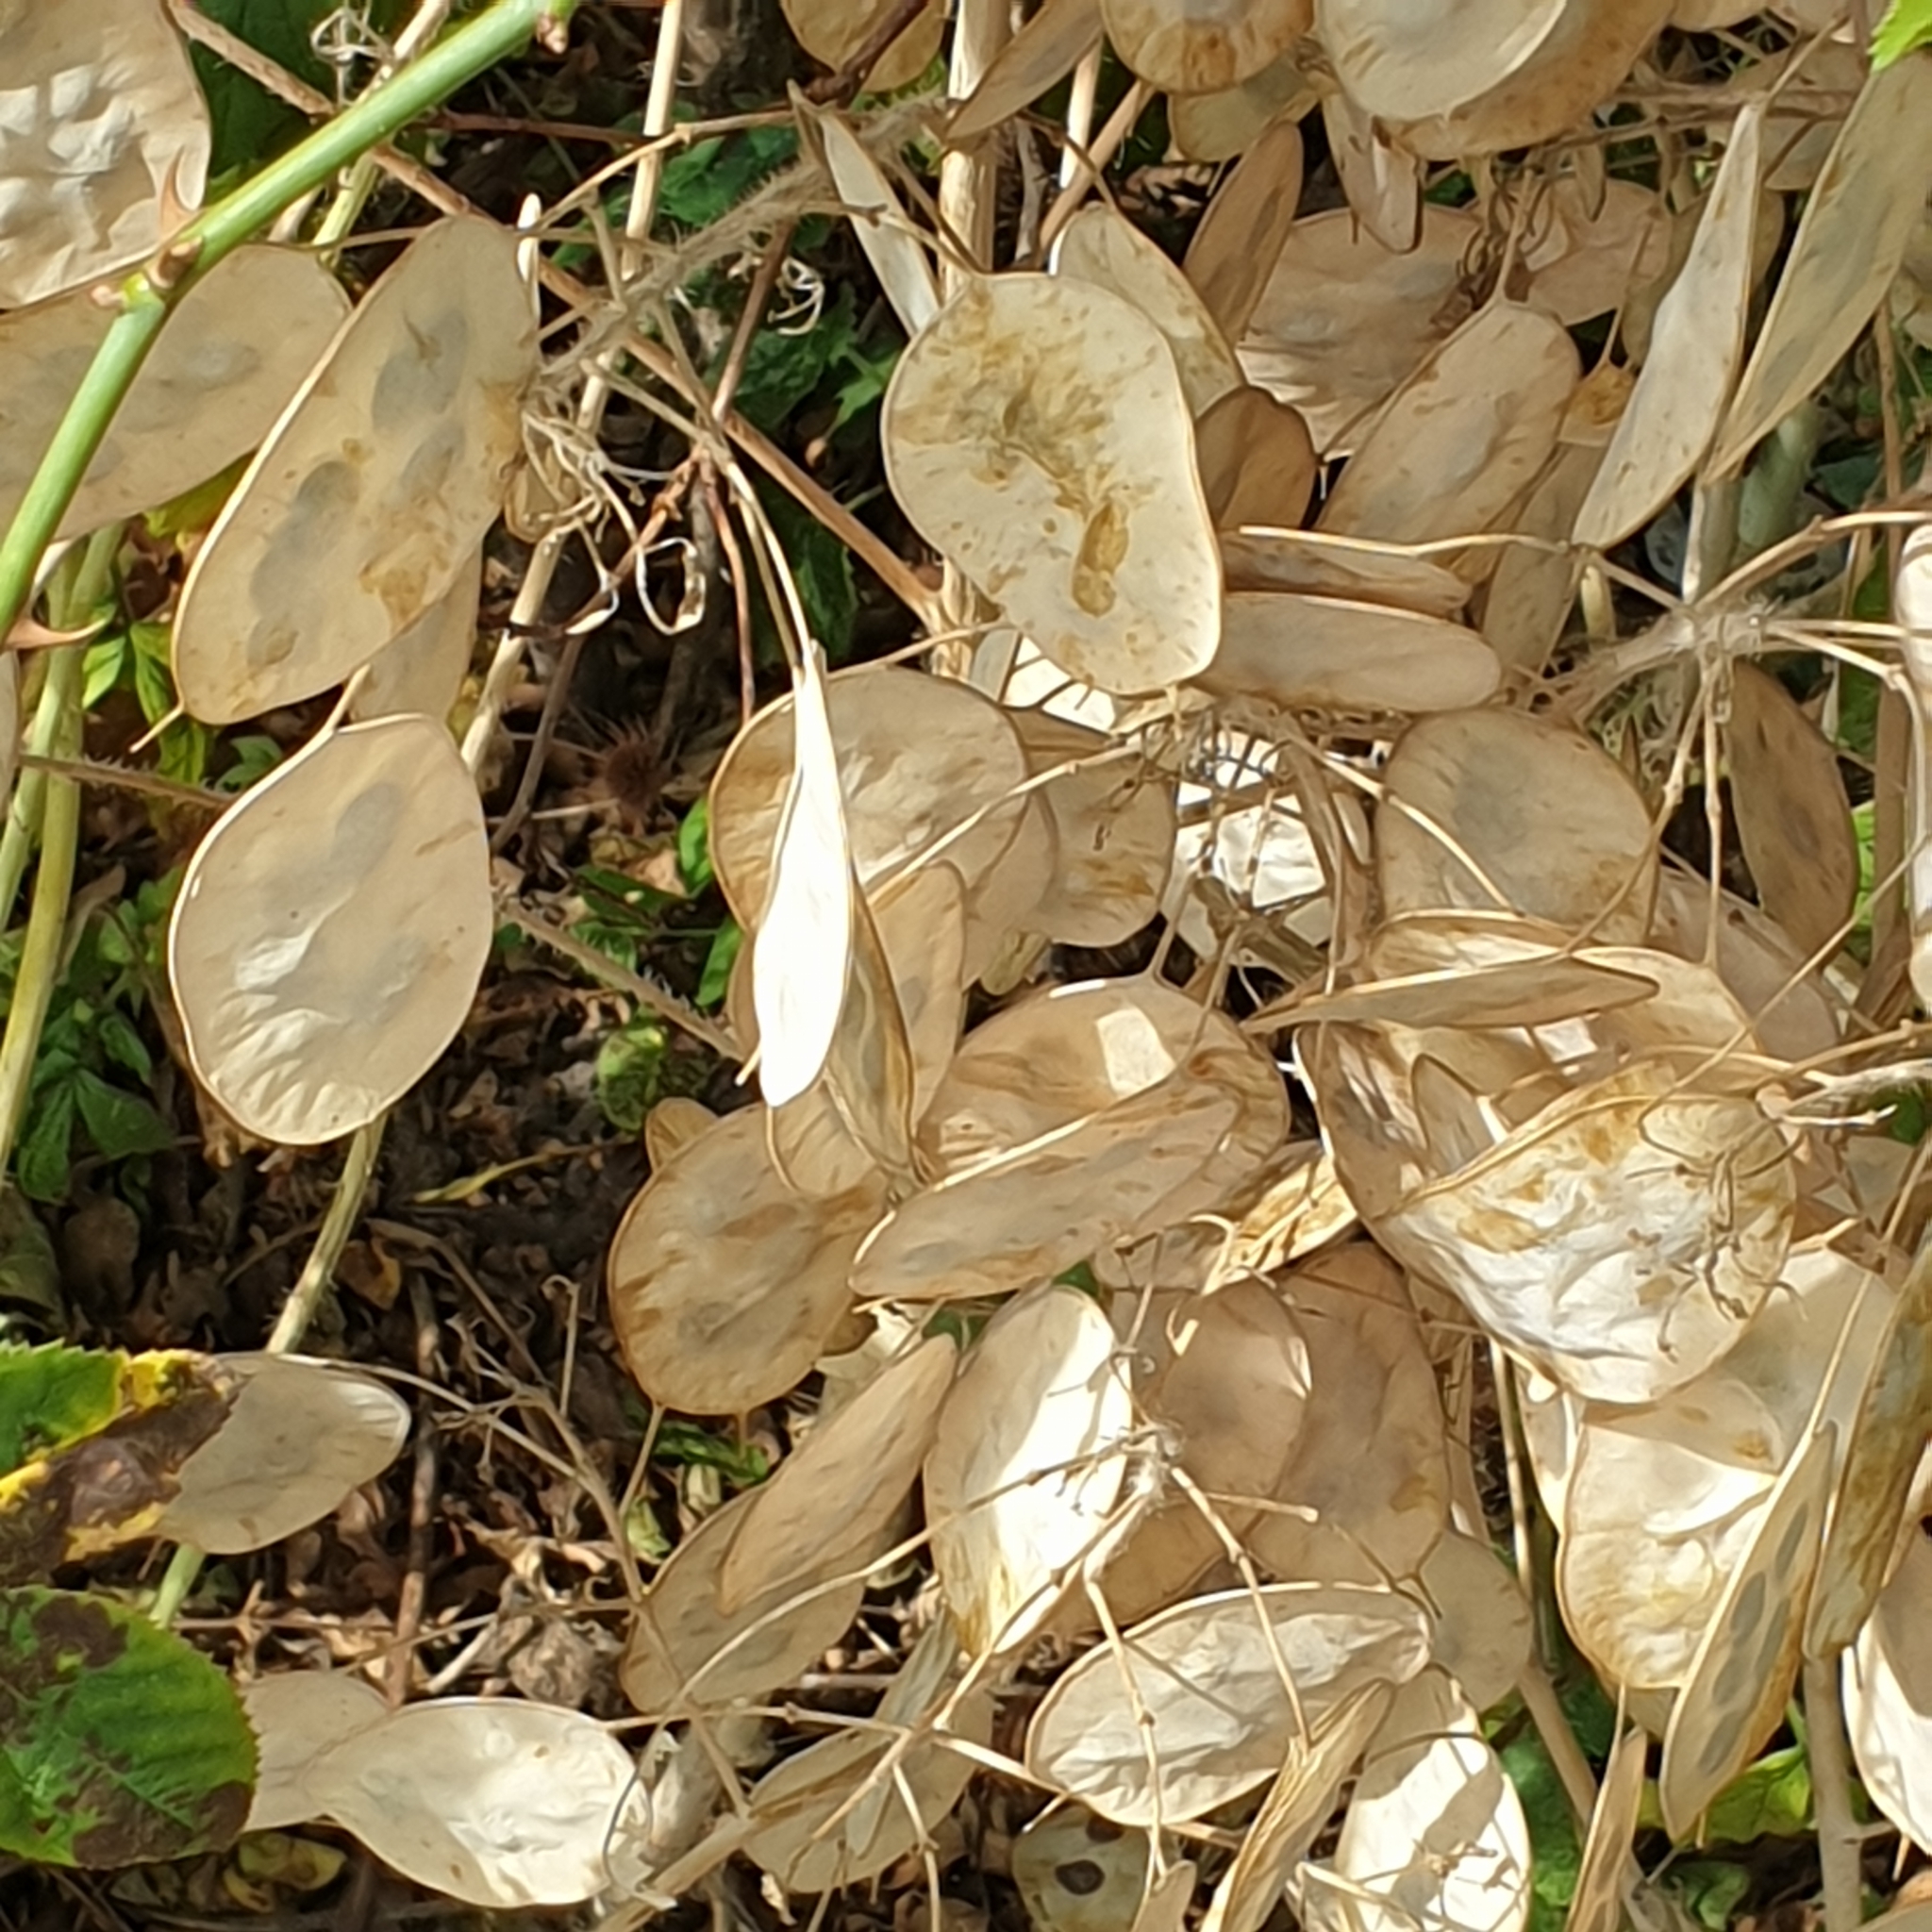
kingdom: Plantae
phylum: Tracheophyta
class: Magnoliopsida
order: Brassicales
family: Brassicaceae
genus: Lunaria
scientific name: Lunaria annua
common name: Honesty
